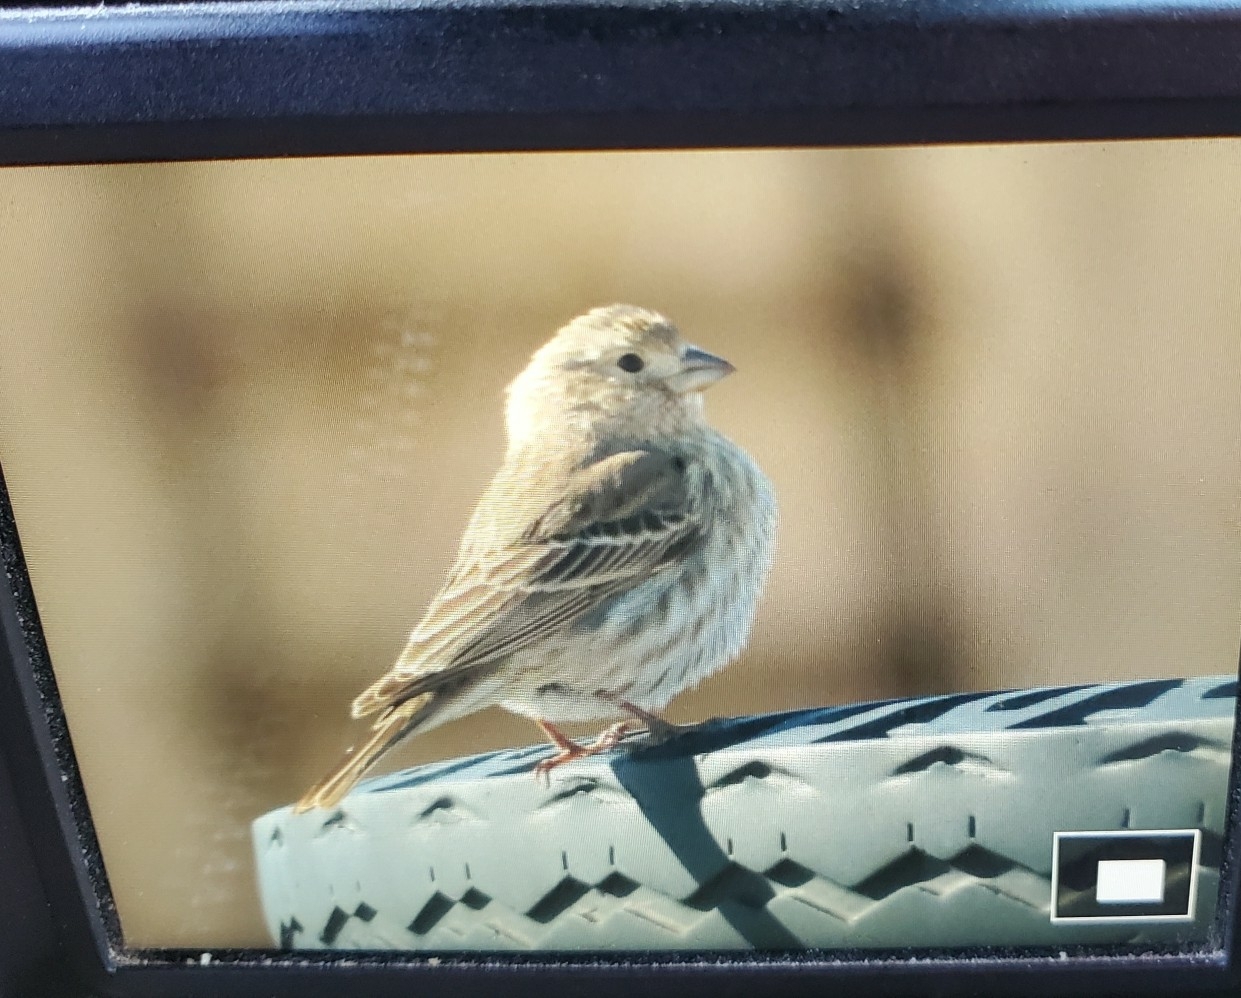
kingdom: Animalia
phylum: Chordata
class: Aves
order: Passeriformes
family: Fringillidae
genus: Haemorhous
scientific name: Haemorhous mexicanus
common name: House finch
